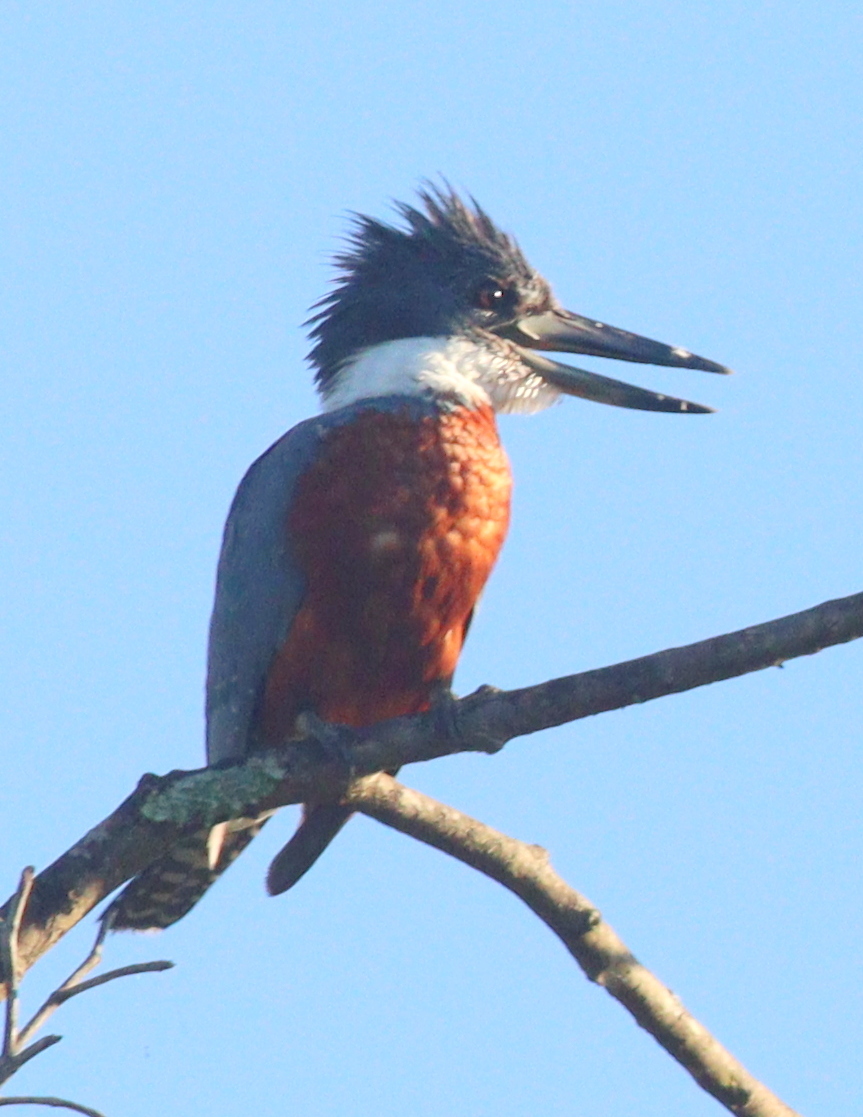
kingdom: Animalia
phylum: Chordata
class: Aves
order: Coraciiformes
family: Alcedinidae
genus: Megaceryle
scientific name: Megaceryle torquata
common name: Ringed kingfisher
